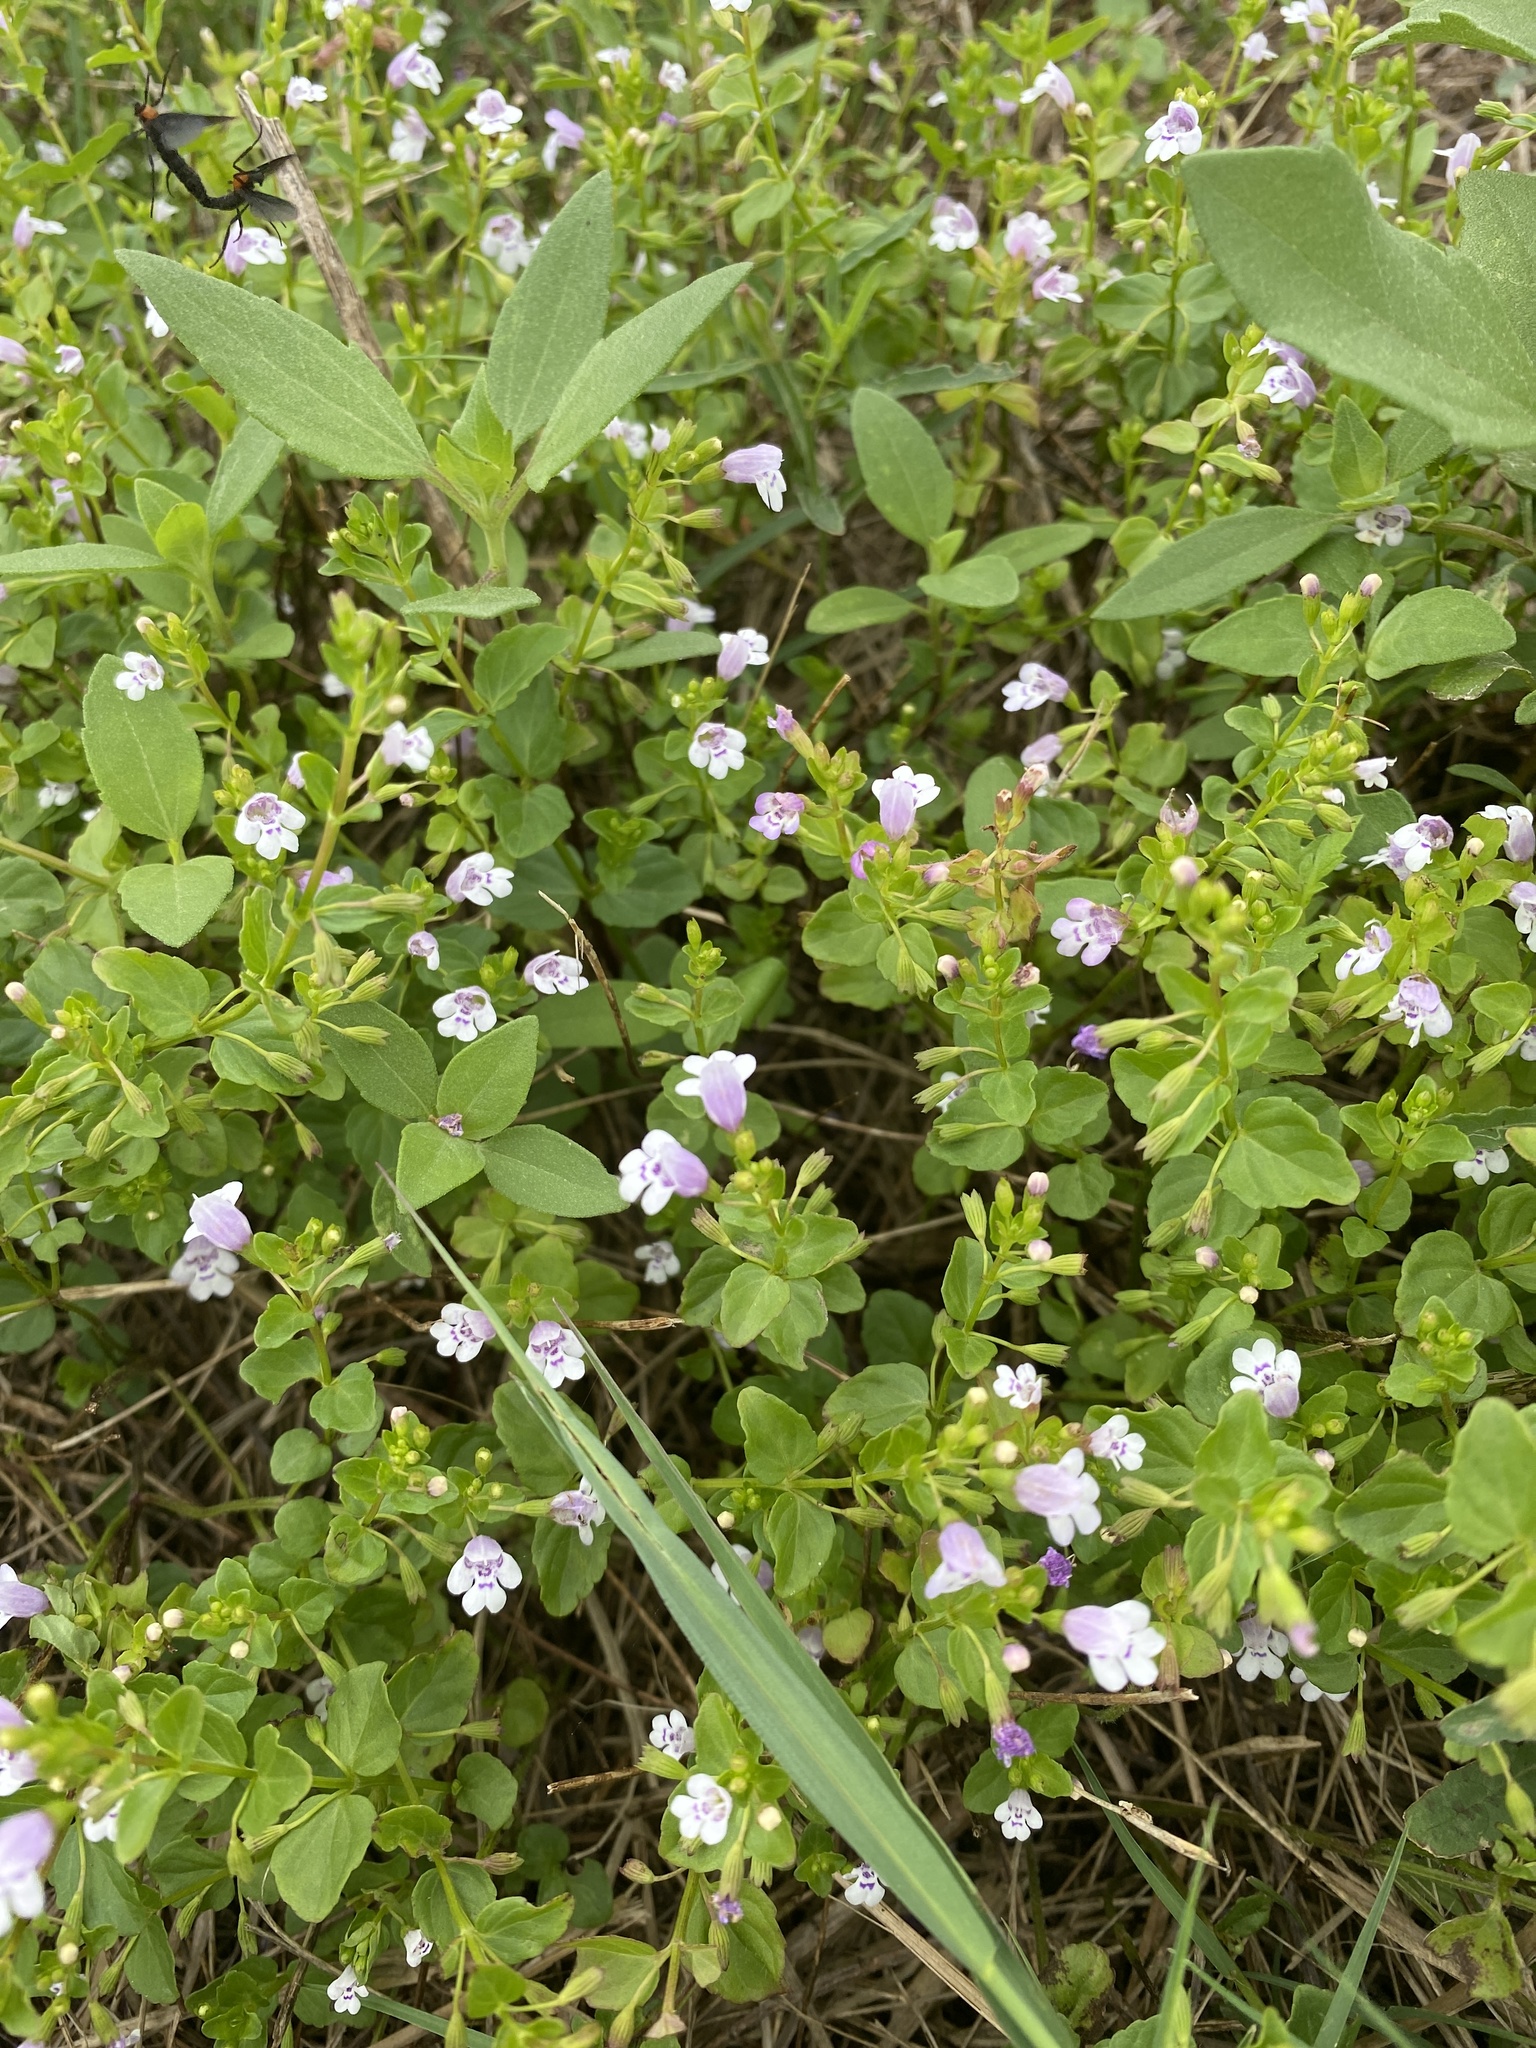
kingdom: Plantae
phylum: Tracheophyta
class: Magnoliopsida
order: Lamiales
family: Lamiaceae
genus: Clinopodium
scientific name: Clinopodium brownei
